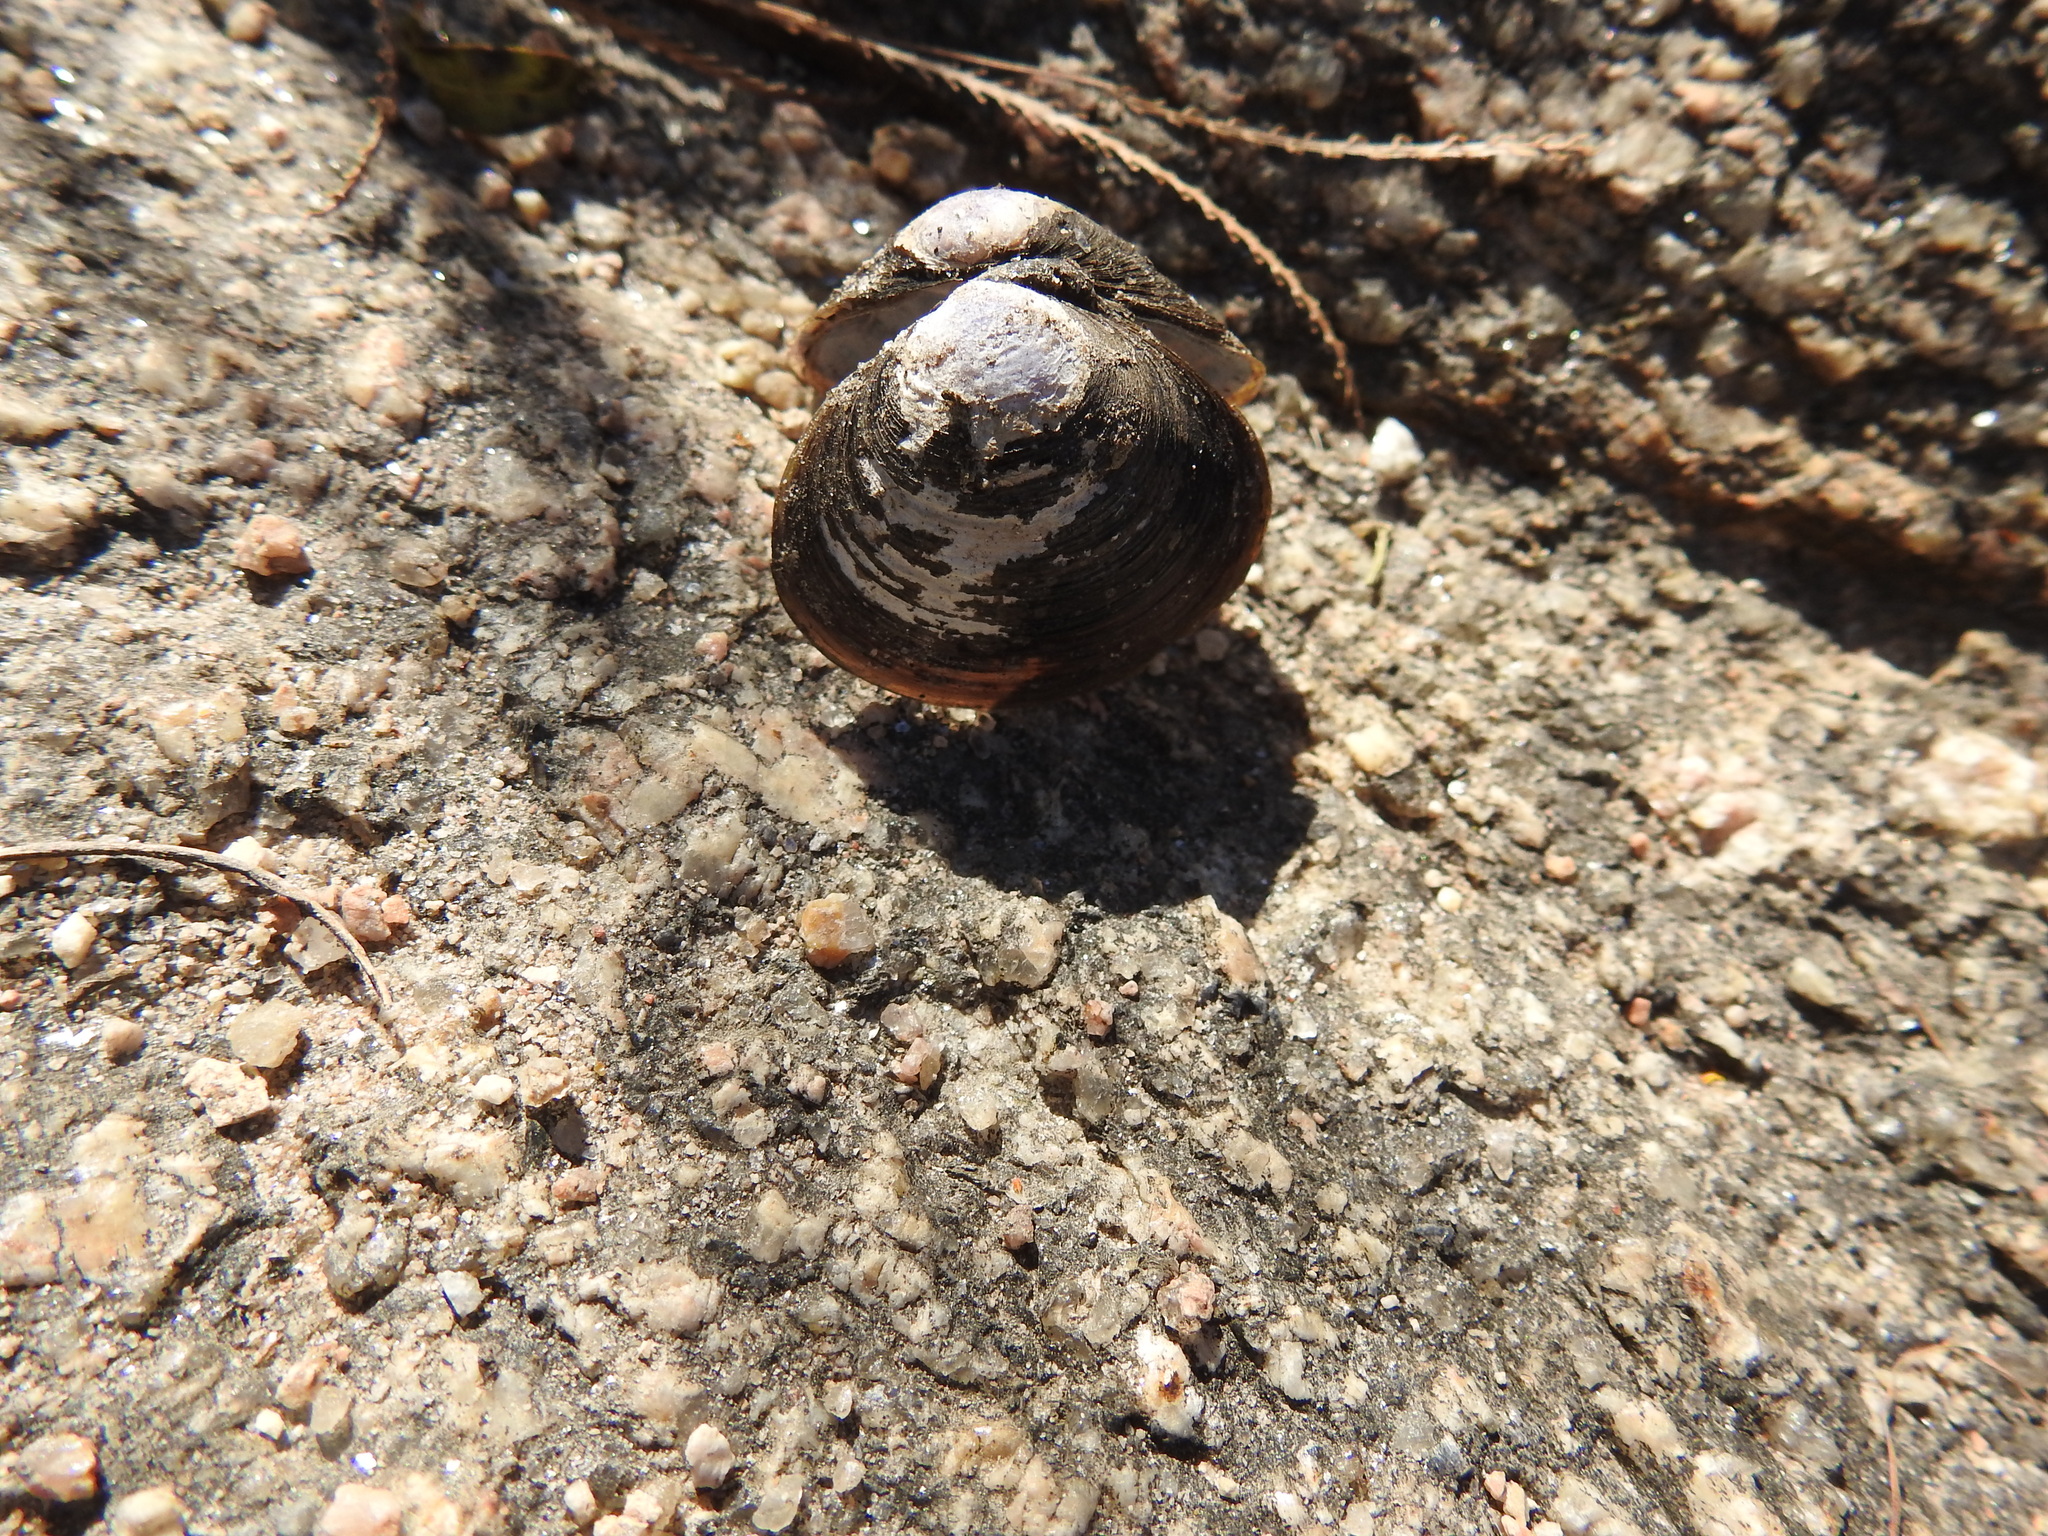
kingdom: Animalia
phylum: Mollusca
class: Bivalvia
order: Venerida
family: Cyrenidae
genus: Corbicula
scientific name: Corbicula largillierti
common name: Purple asian clam
